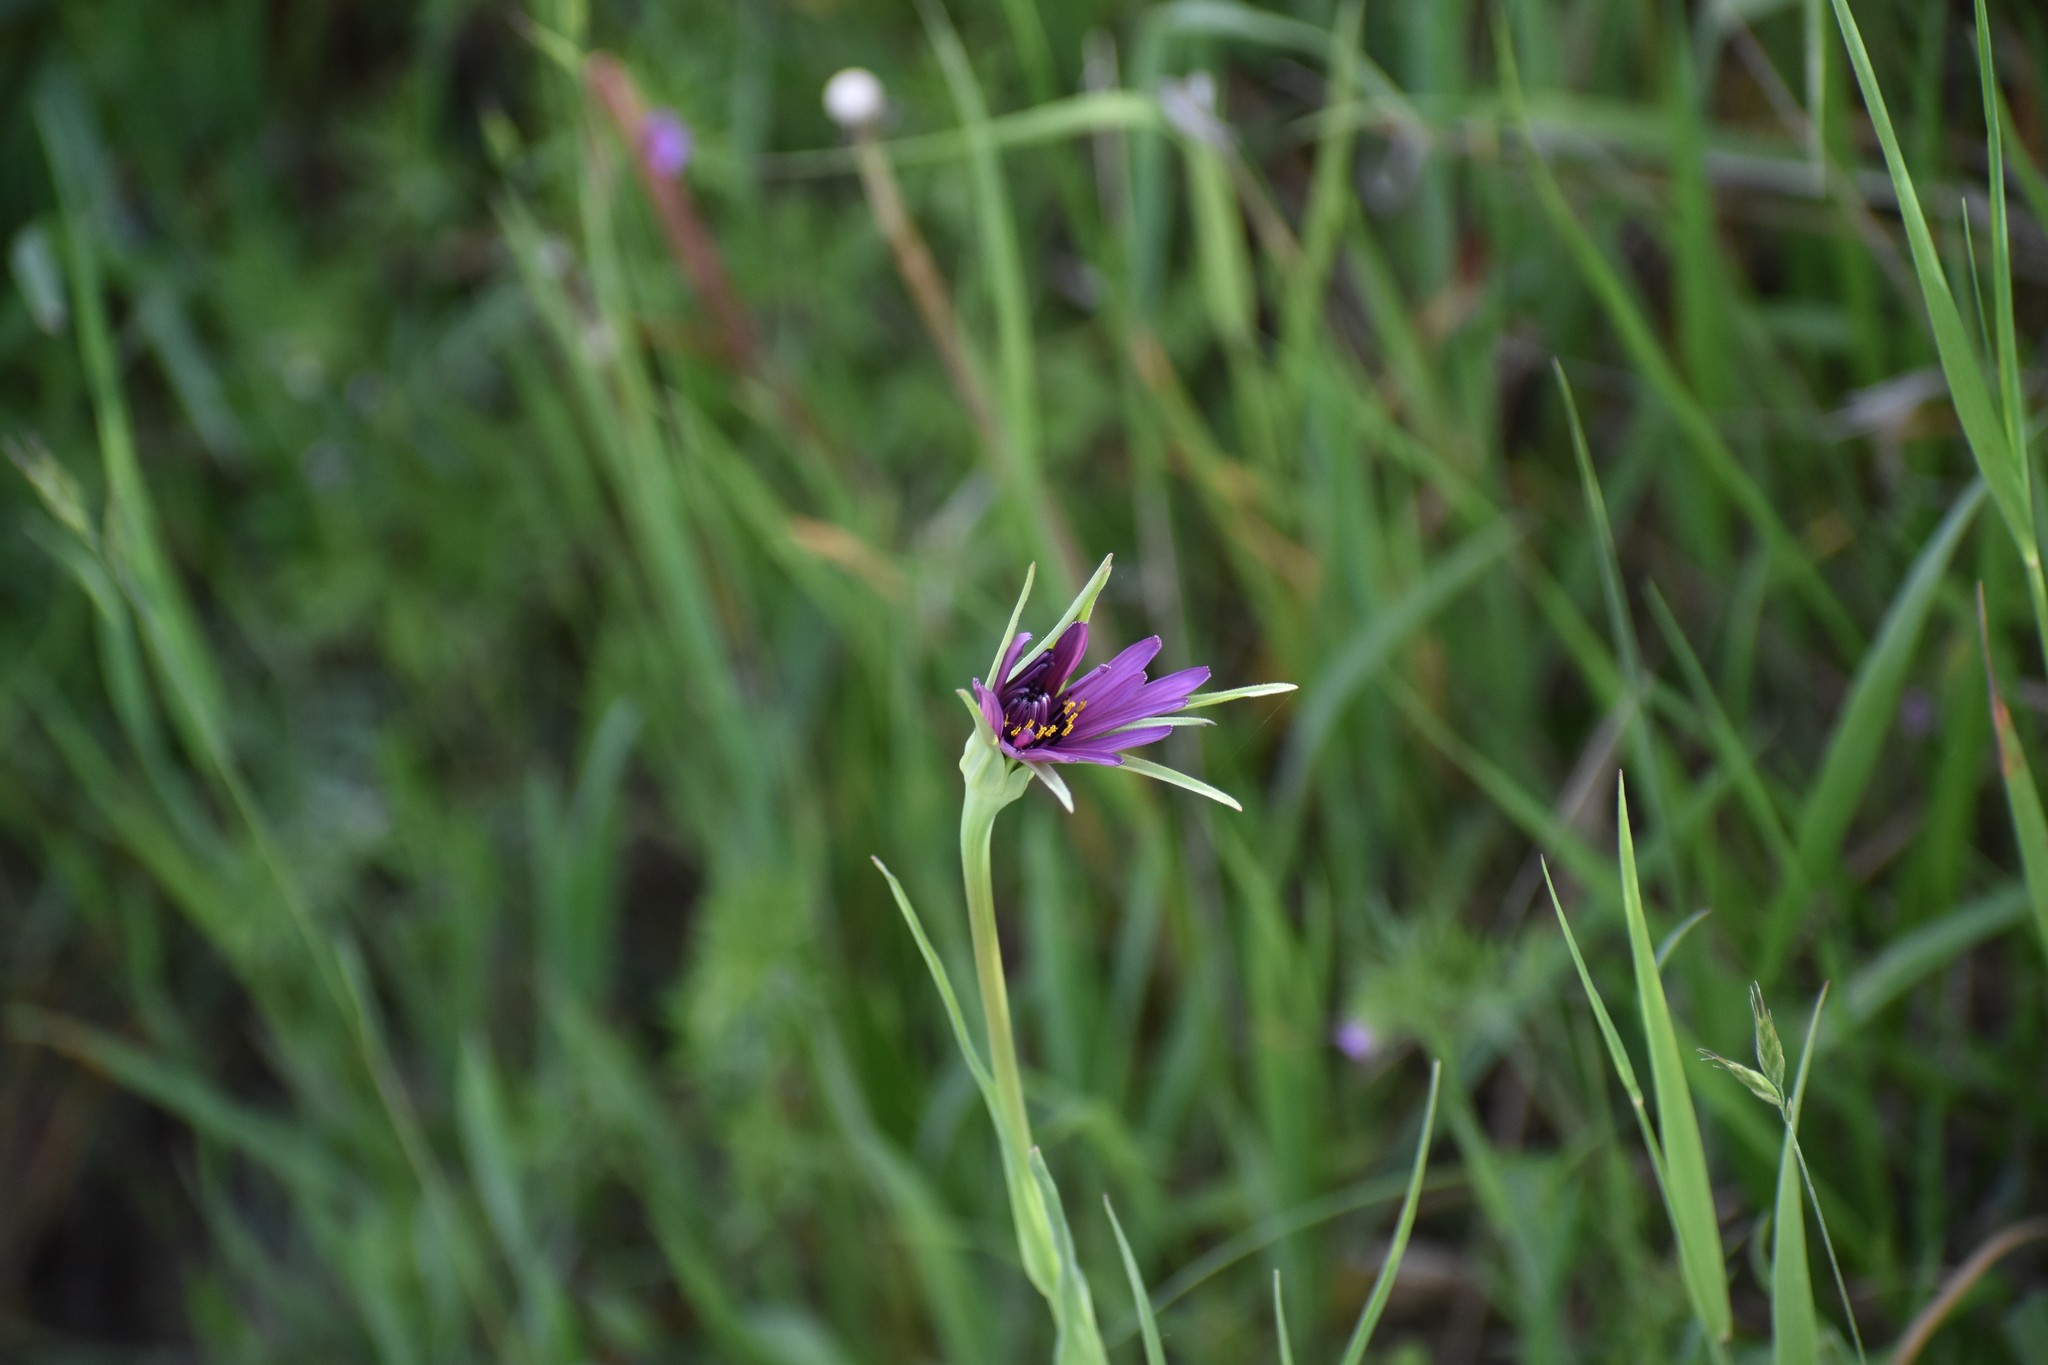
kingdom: Plantae
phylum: Tracheophyta
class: Magnoliopsida
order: Asterales
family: Asteraceae
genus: Tragopogon
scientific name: Tragopogon porrifolius
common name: Salsify
